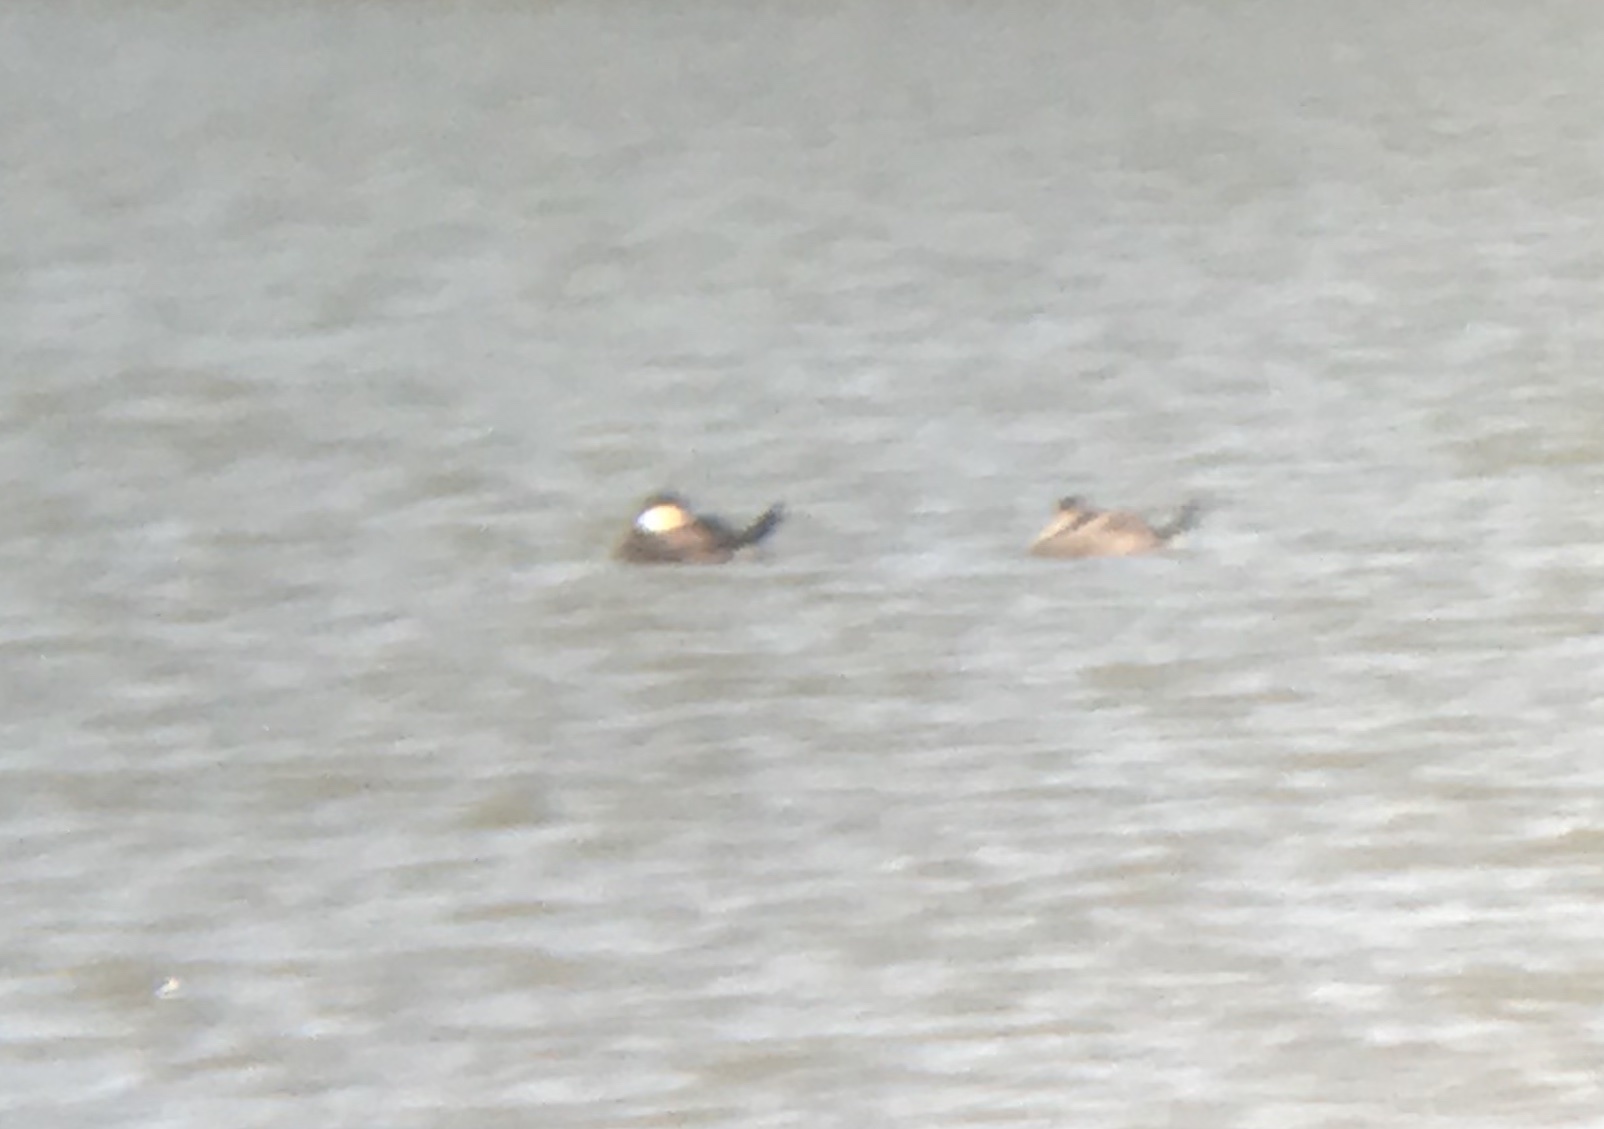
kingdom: Animalia
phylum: Chordata
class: Aves
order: Anseriformes
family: Anatidae
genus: Oxyura
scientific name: Oxyura jamaicensis
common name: Ruddy duck
